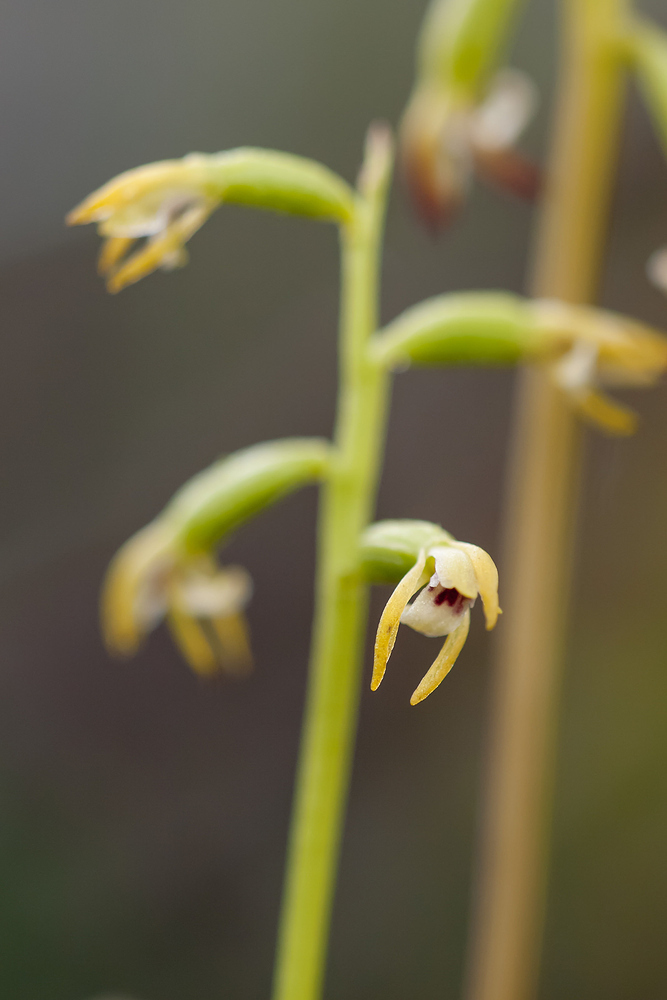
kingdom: Plantae
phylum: Tracheophyta
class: Liliopsida
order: Asparagales
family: Orchidaceae
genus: Corallorhiza
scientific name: Corallorhiza trifida
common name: Yellow coralroot
